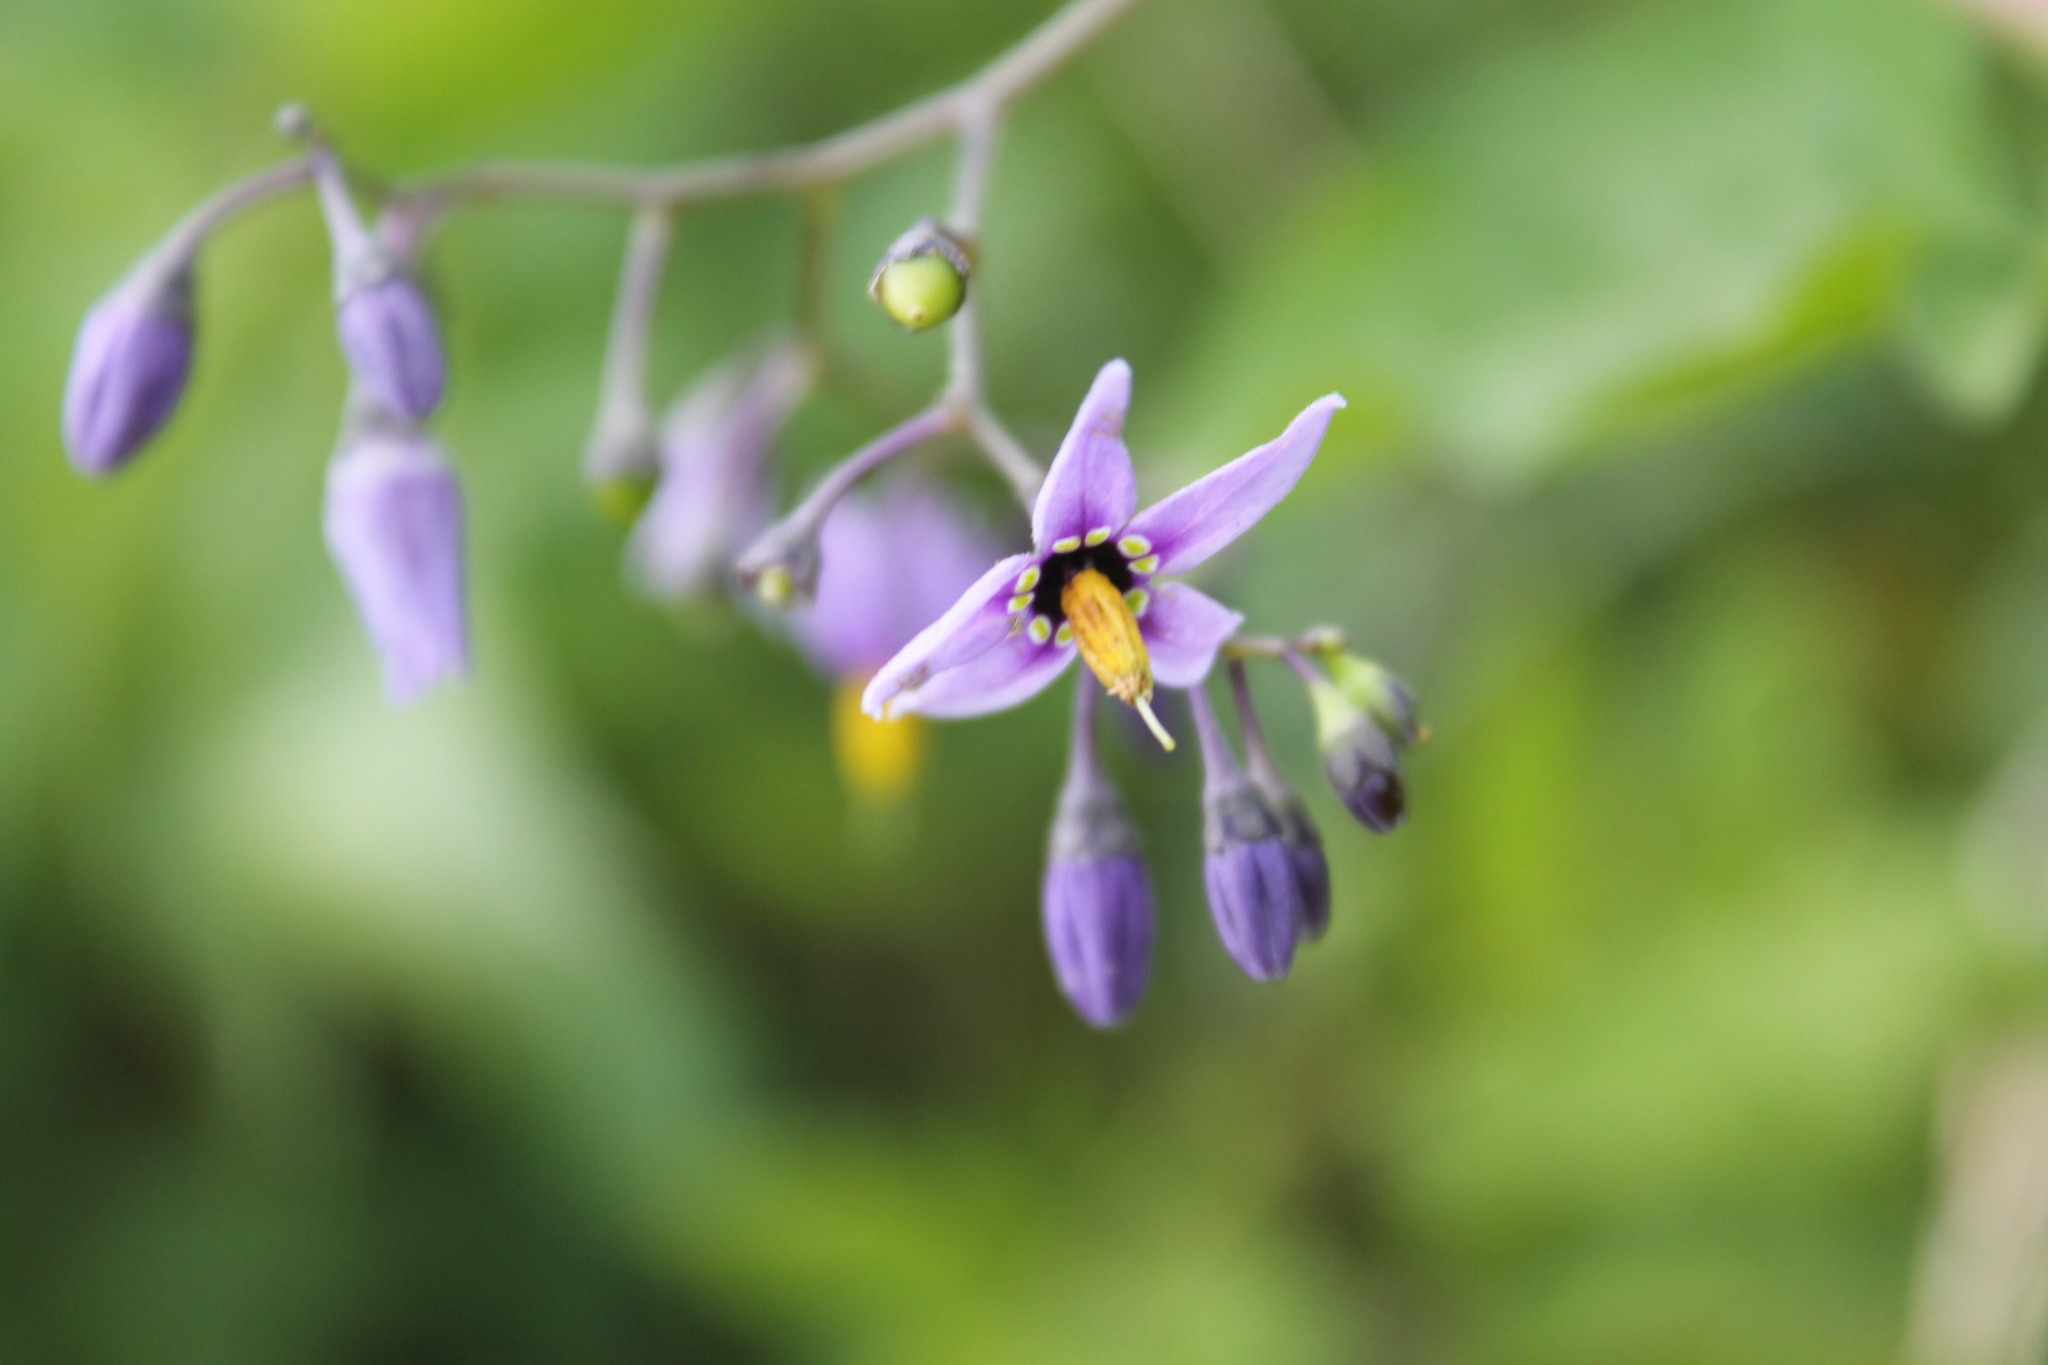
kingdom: Plantae
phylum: Tracheophyta
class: Magnoliopsida
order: Solanales
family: Solanaceae
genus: Solanum
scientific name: Solanum dulcamara
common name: Climbing nightshade
